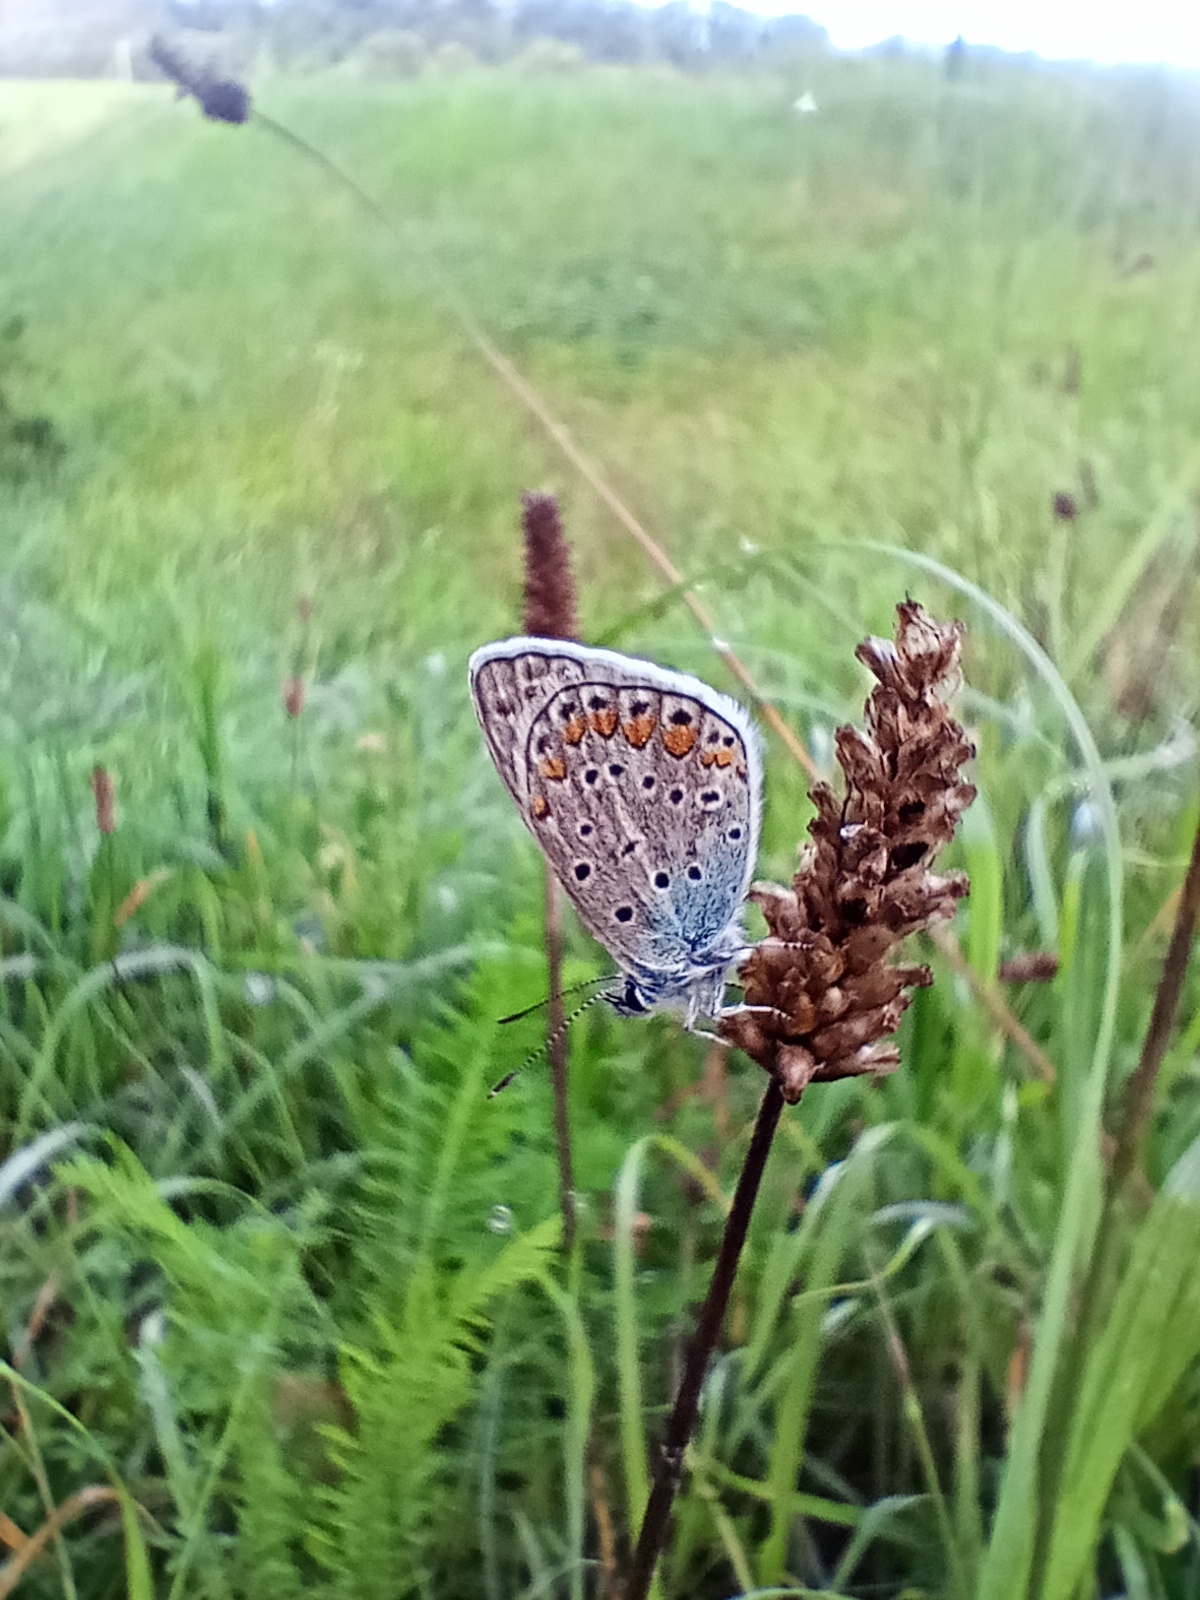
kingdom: Animalia
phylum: Arthropoda
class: Insecta
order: Lepidoptera
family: Lycaenidae
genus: Polyommatus
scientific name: Polyommatus icarus
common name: Common blue
